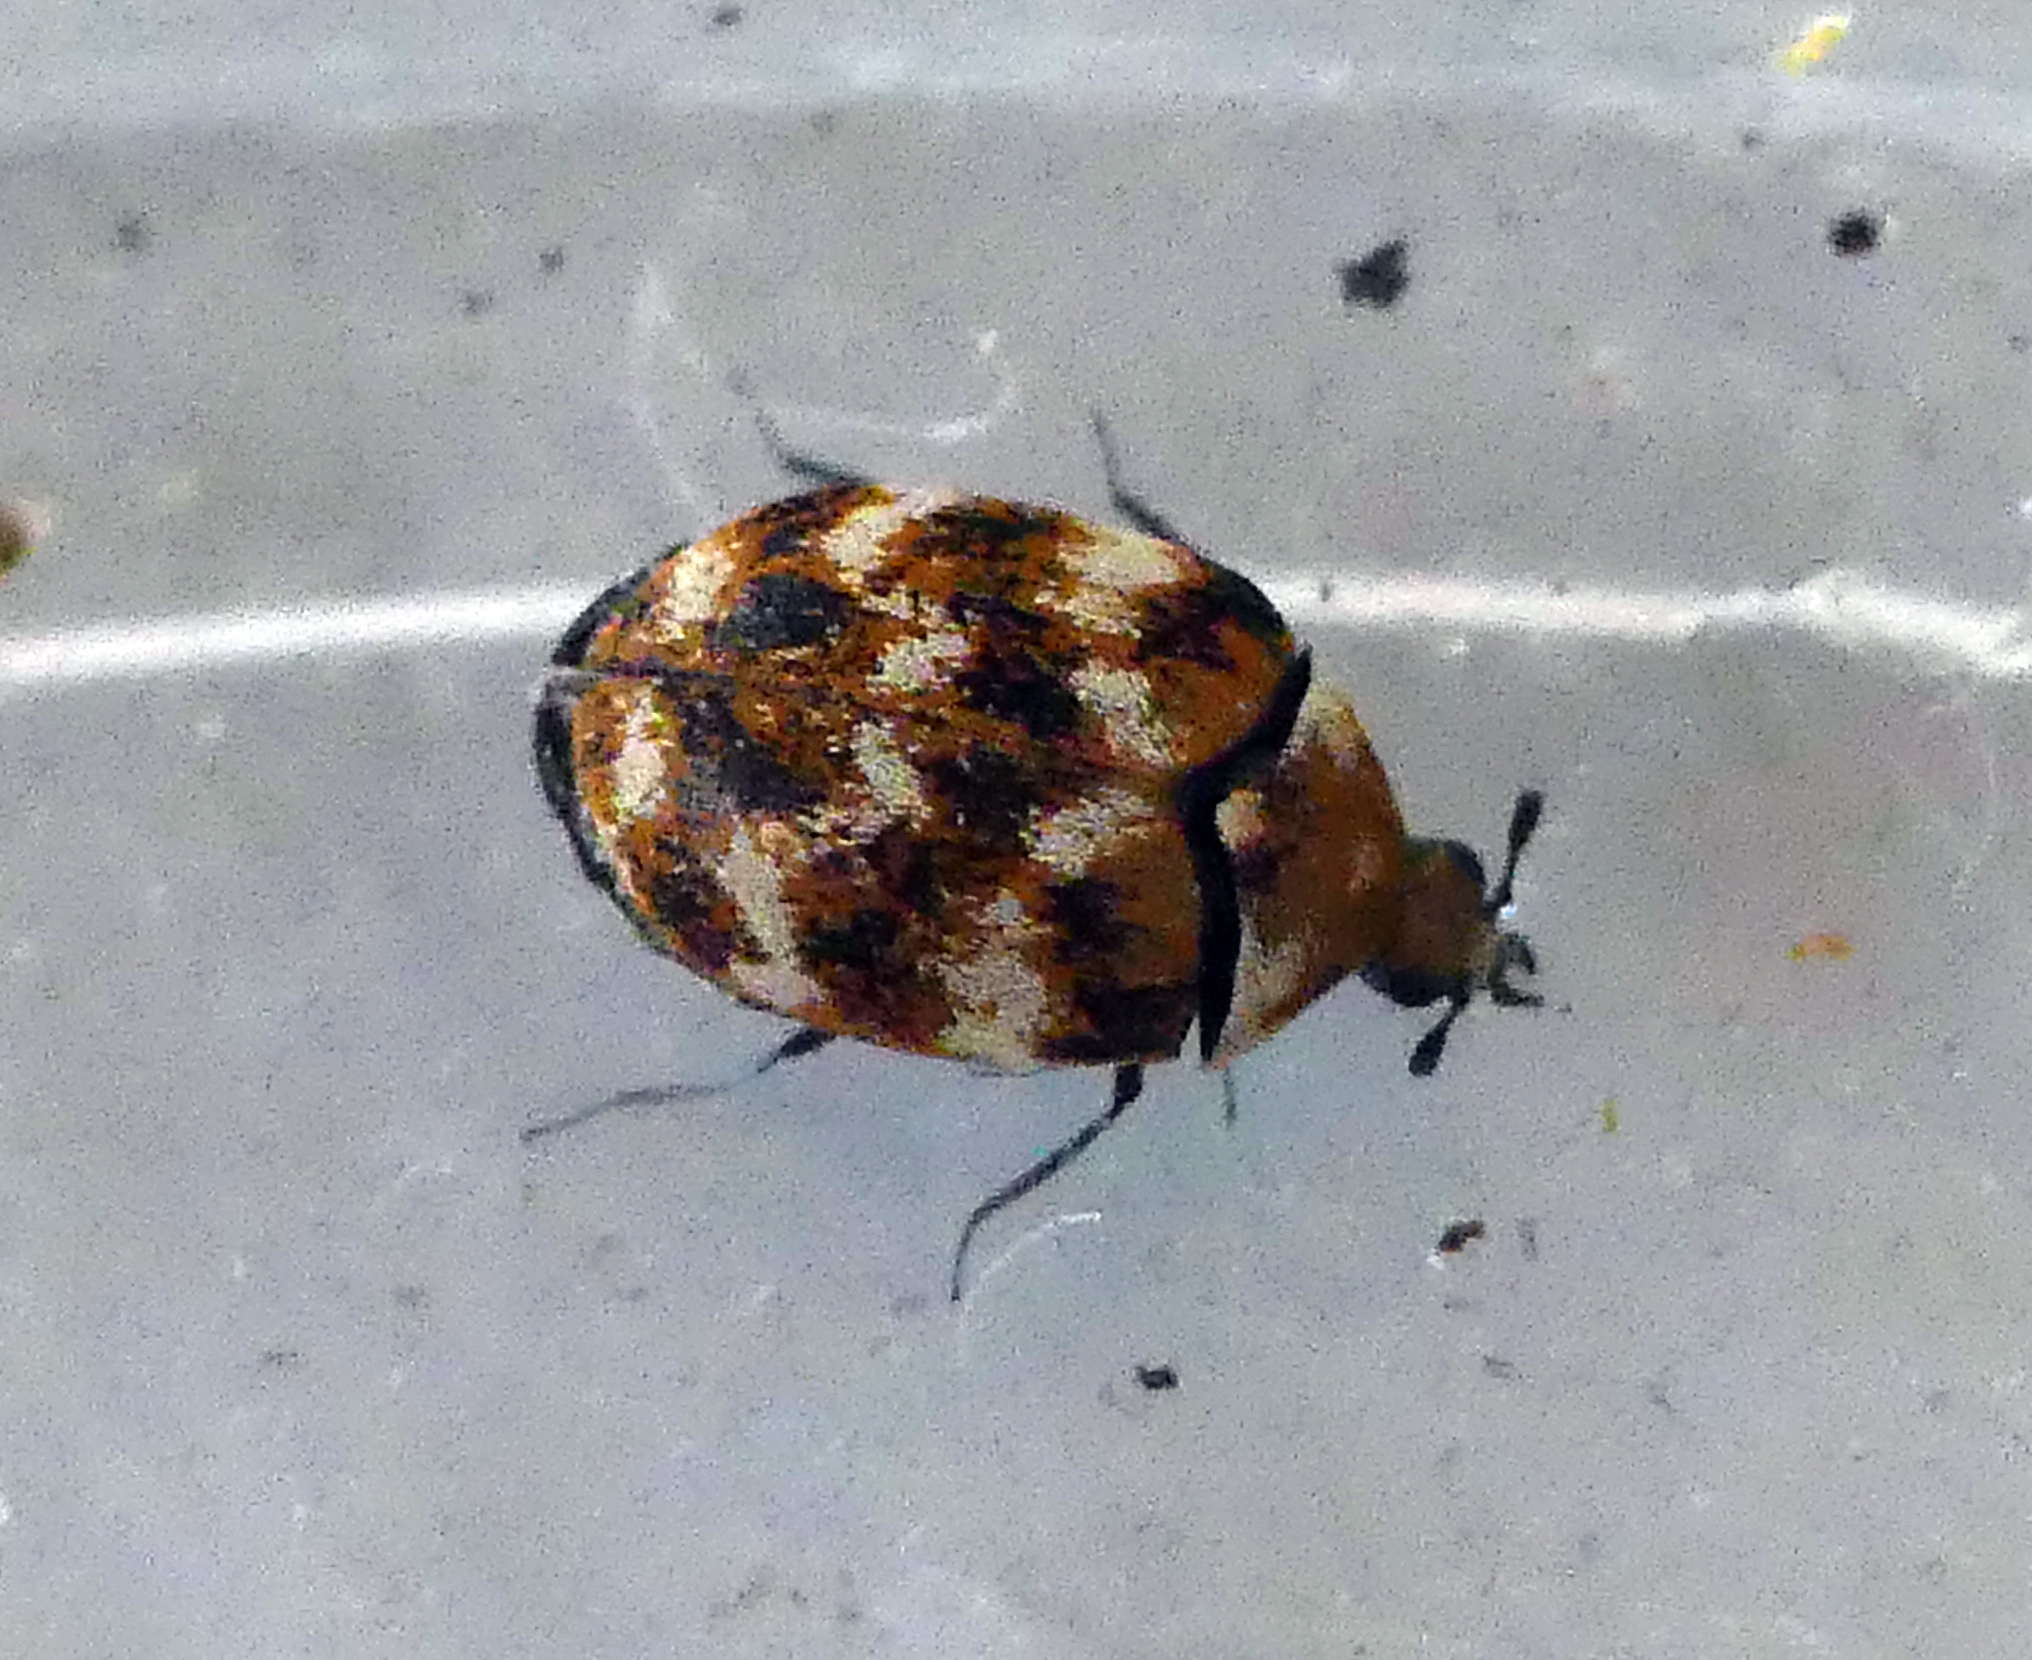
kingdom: Animalia
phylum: Arthropoda
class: Insecta
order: Coleoptera
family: Dermestidae
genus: Anthrenus
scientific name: Anthrenus verbasci
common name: Varied carpet beetle
